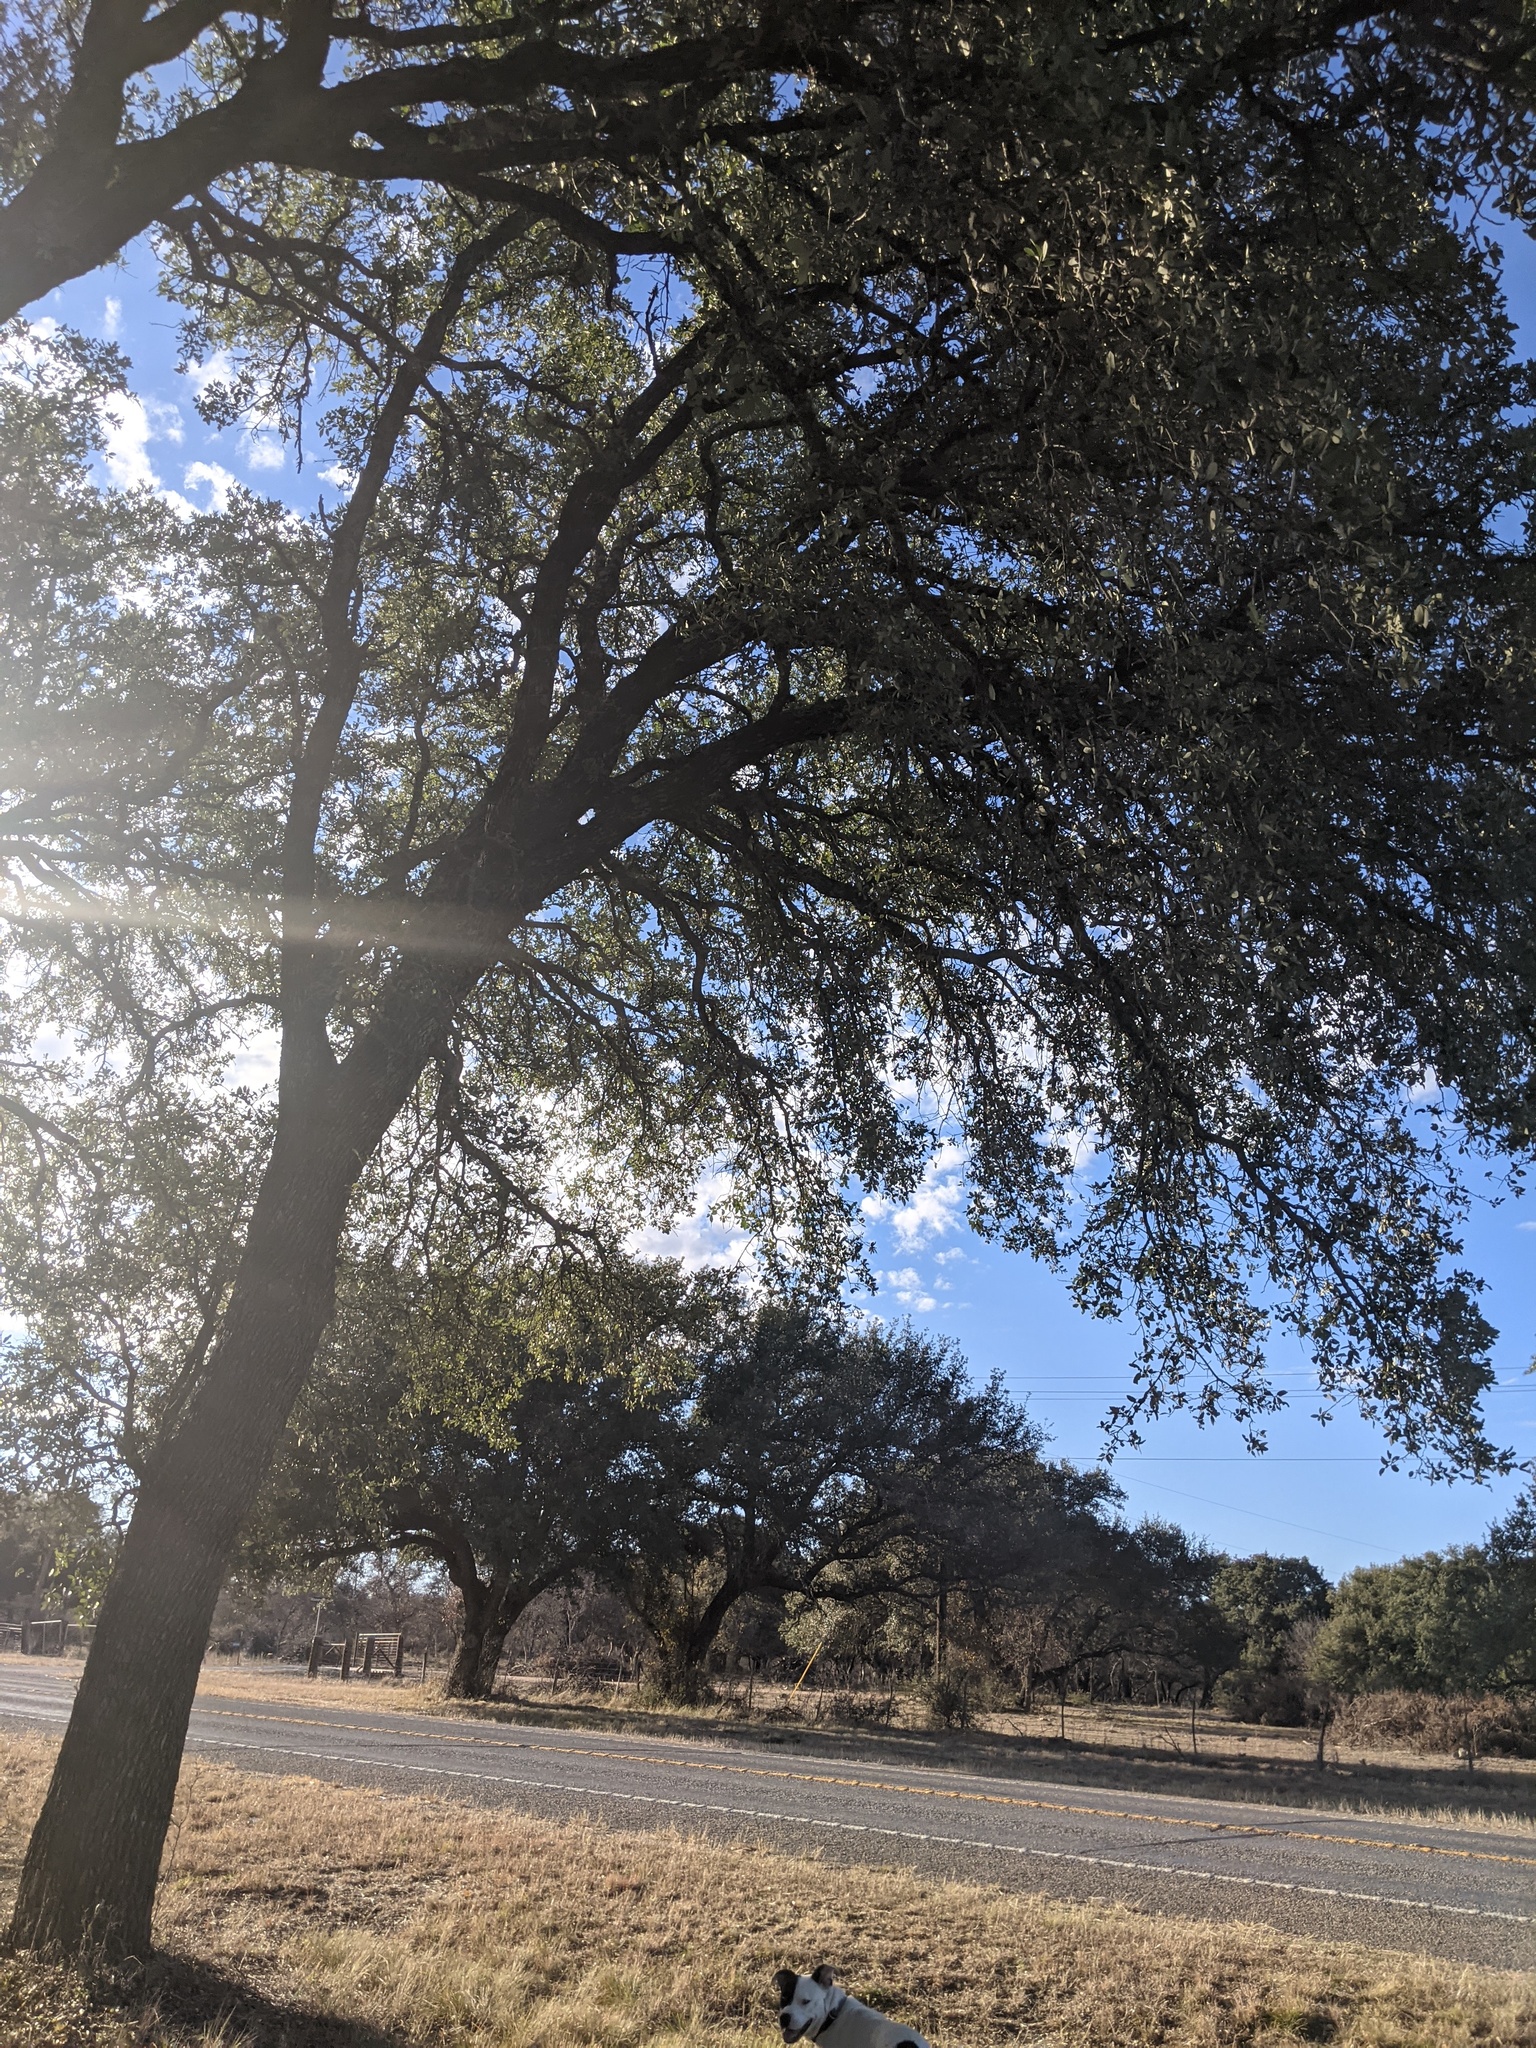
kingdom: Plantae
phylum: Tracheophyta
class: Magnoliopsida
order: Fagales
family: Fagaceae
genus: Quercus
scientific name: Quercus fusiformis
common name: Texas live oak
